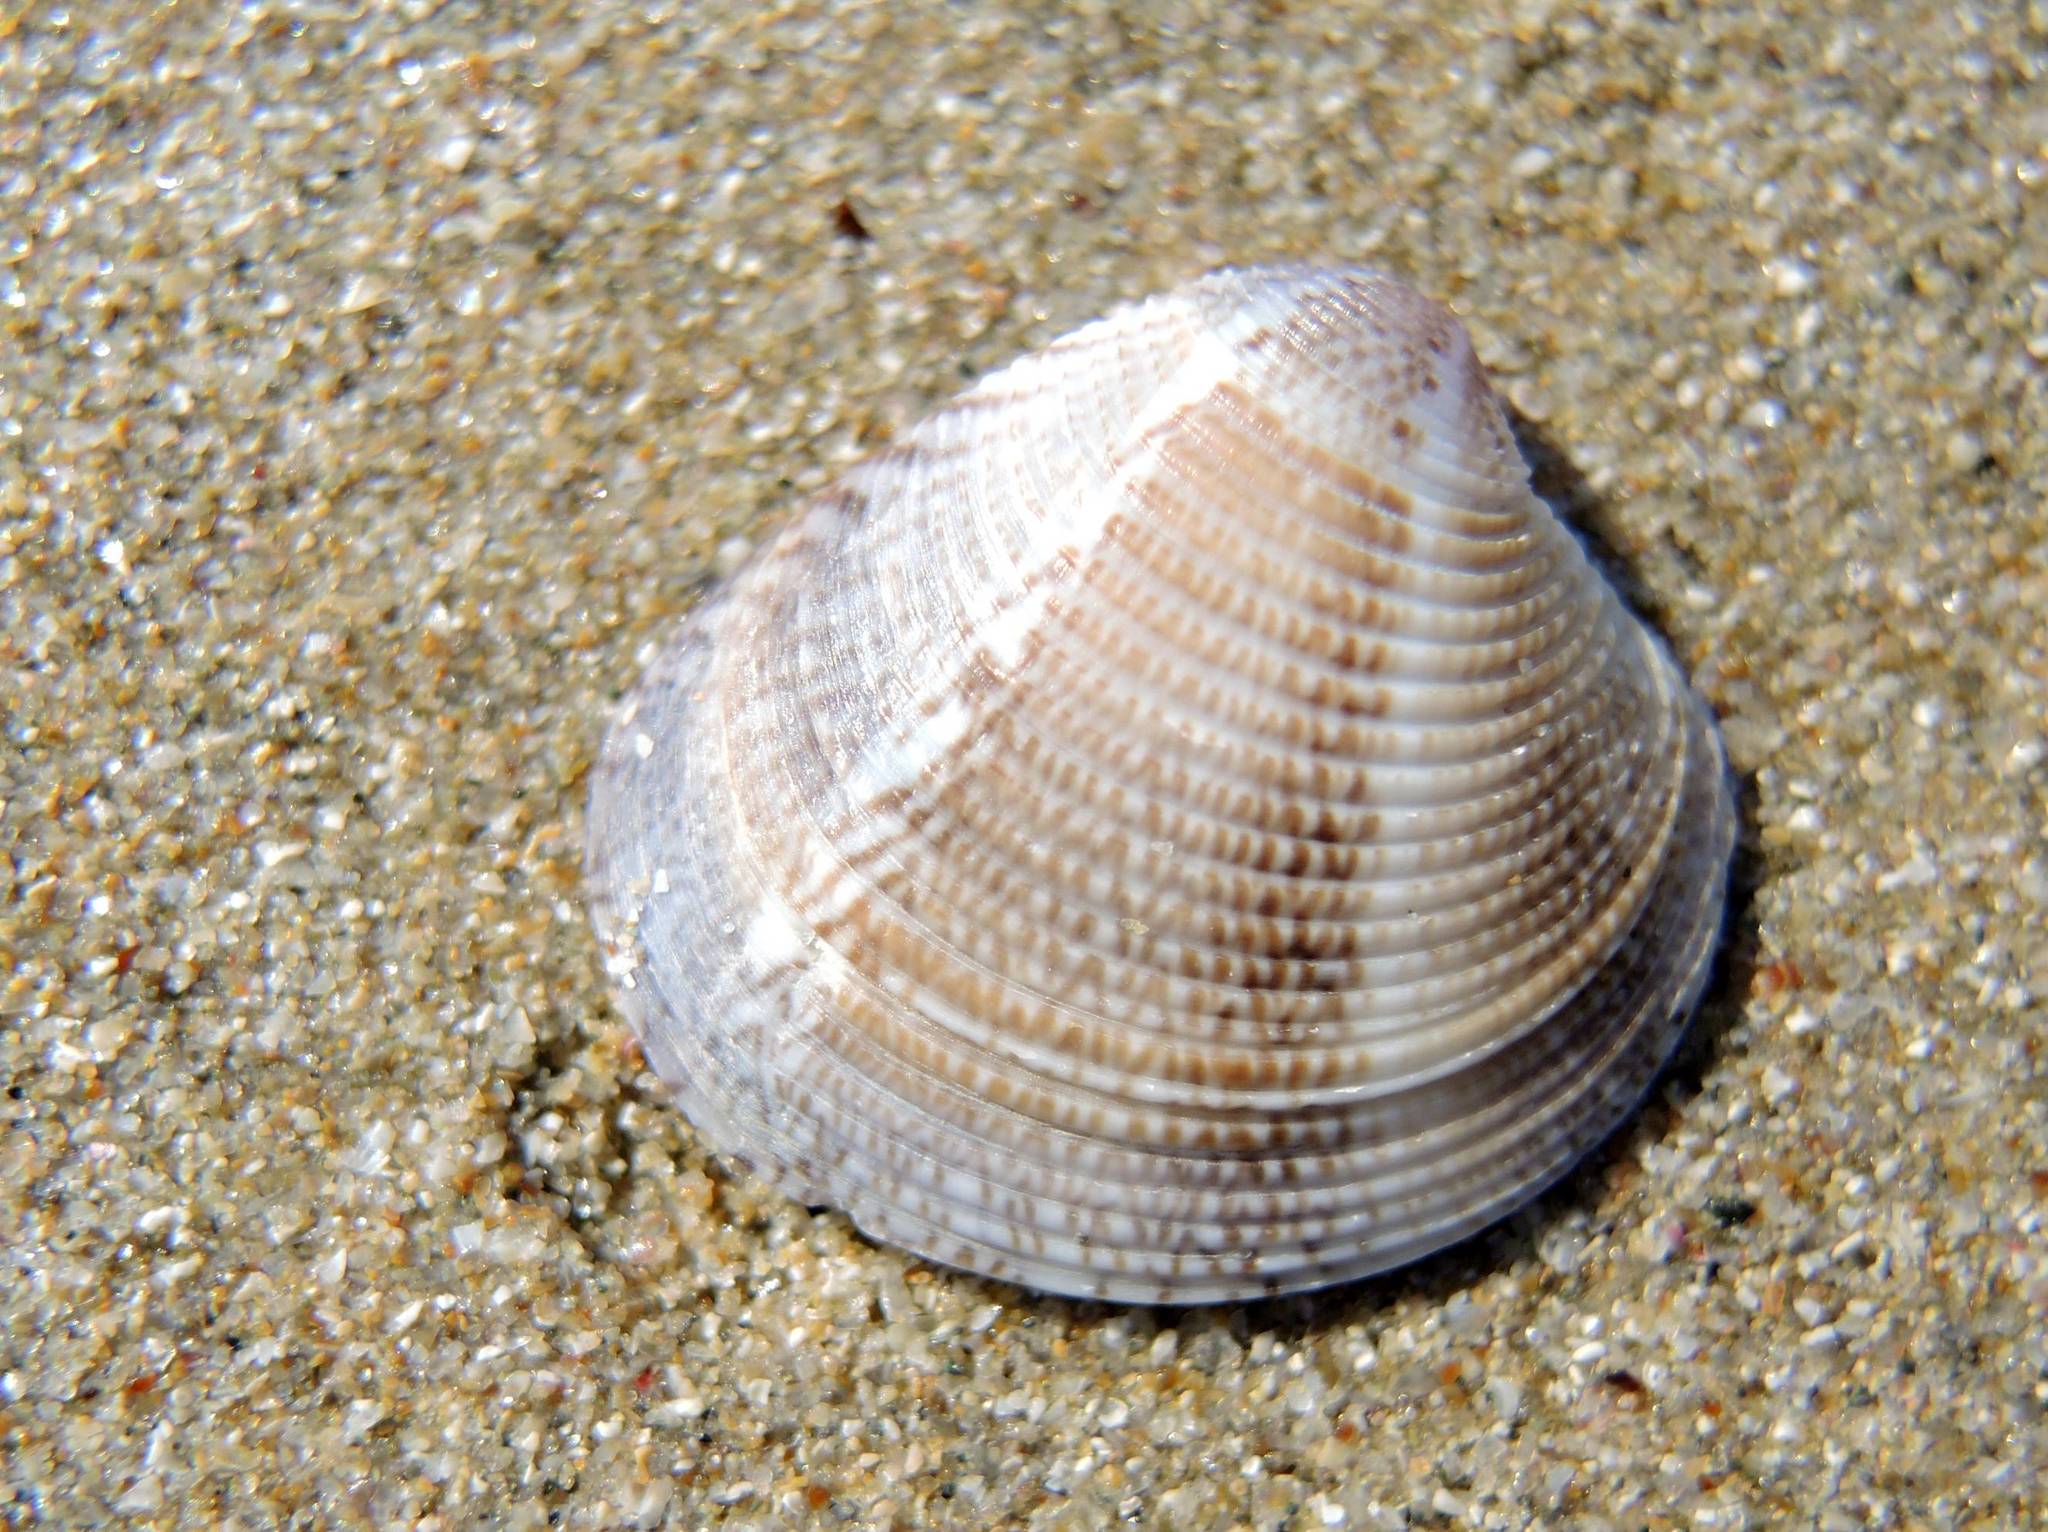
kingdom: Animalia
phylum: Mollusca
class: Bivalvia
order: Venerida
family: Veneridae
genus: Chamelea
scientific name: Chamelea gallina
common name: Chicken venus
